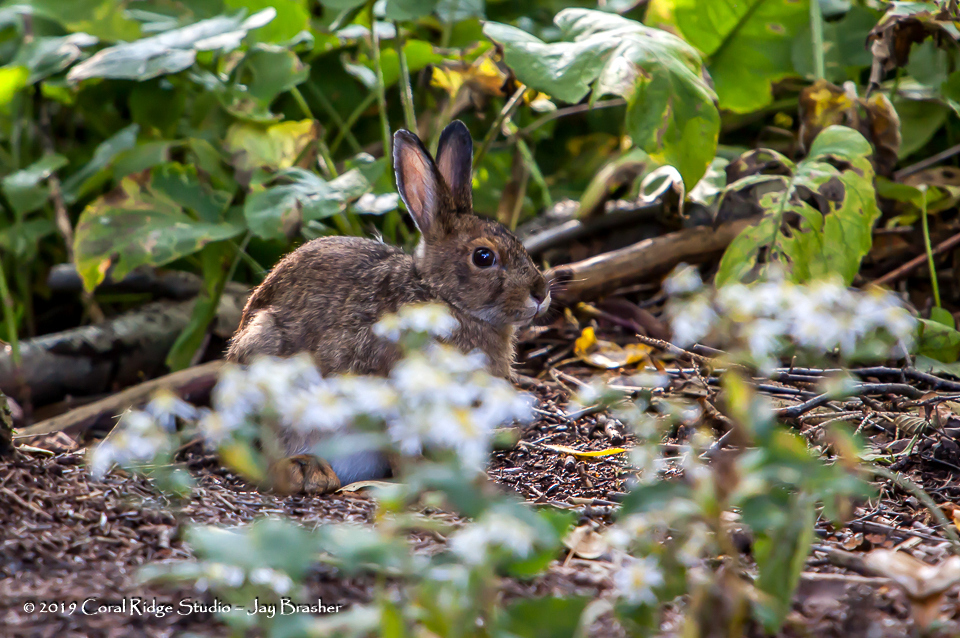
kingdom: Animalia
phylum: Chordata
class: Mammalia
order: Lagomorpha
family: Leporidae
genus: Lepus
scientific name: Lepus americanus
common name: Snowshoe hare
